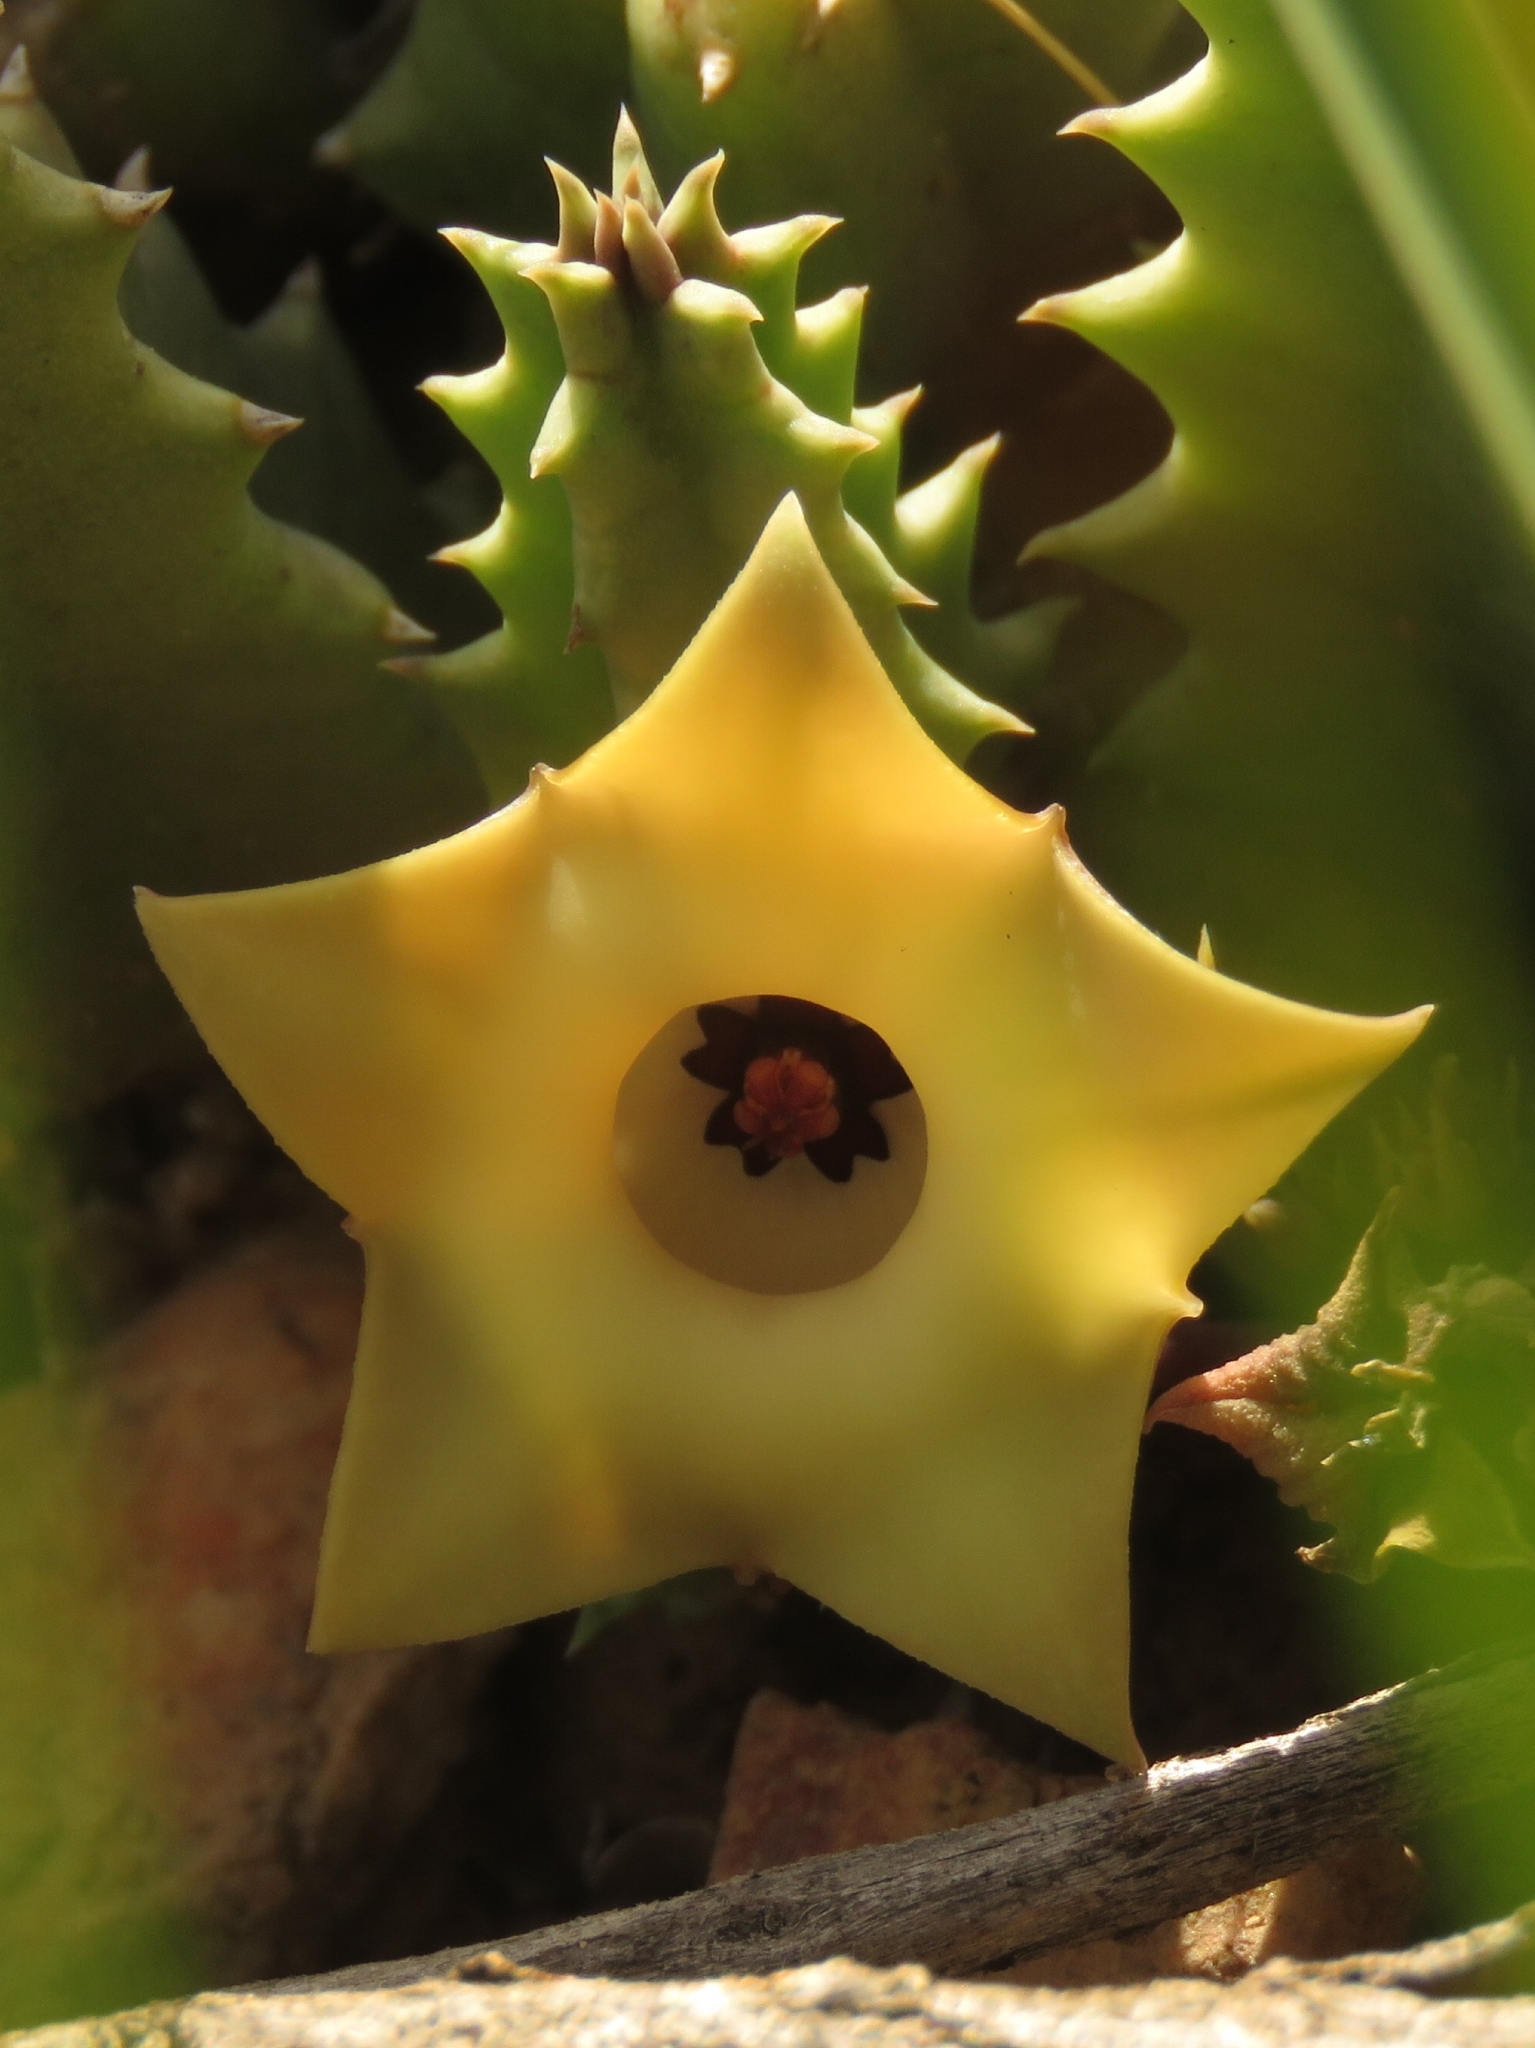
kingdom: Plantae
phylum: Tracheophyta
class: Magnoliopsida
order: Gentianales
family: Apocynaceae
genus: Ceropegia
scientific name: Ceropegia thuretii
